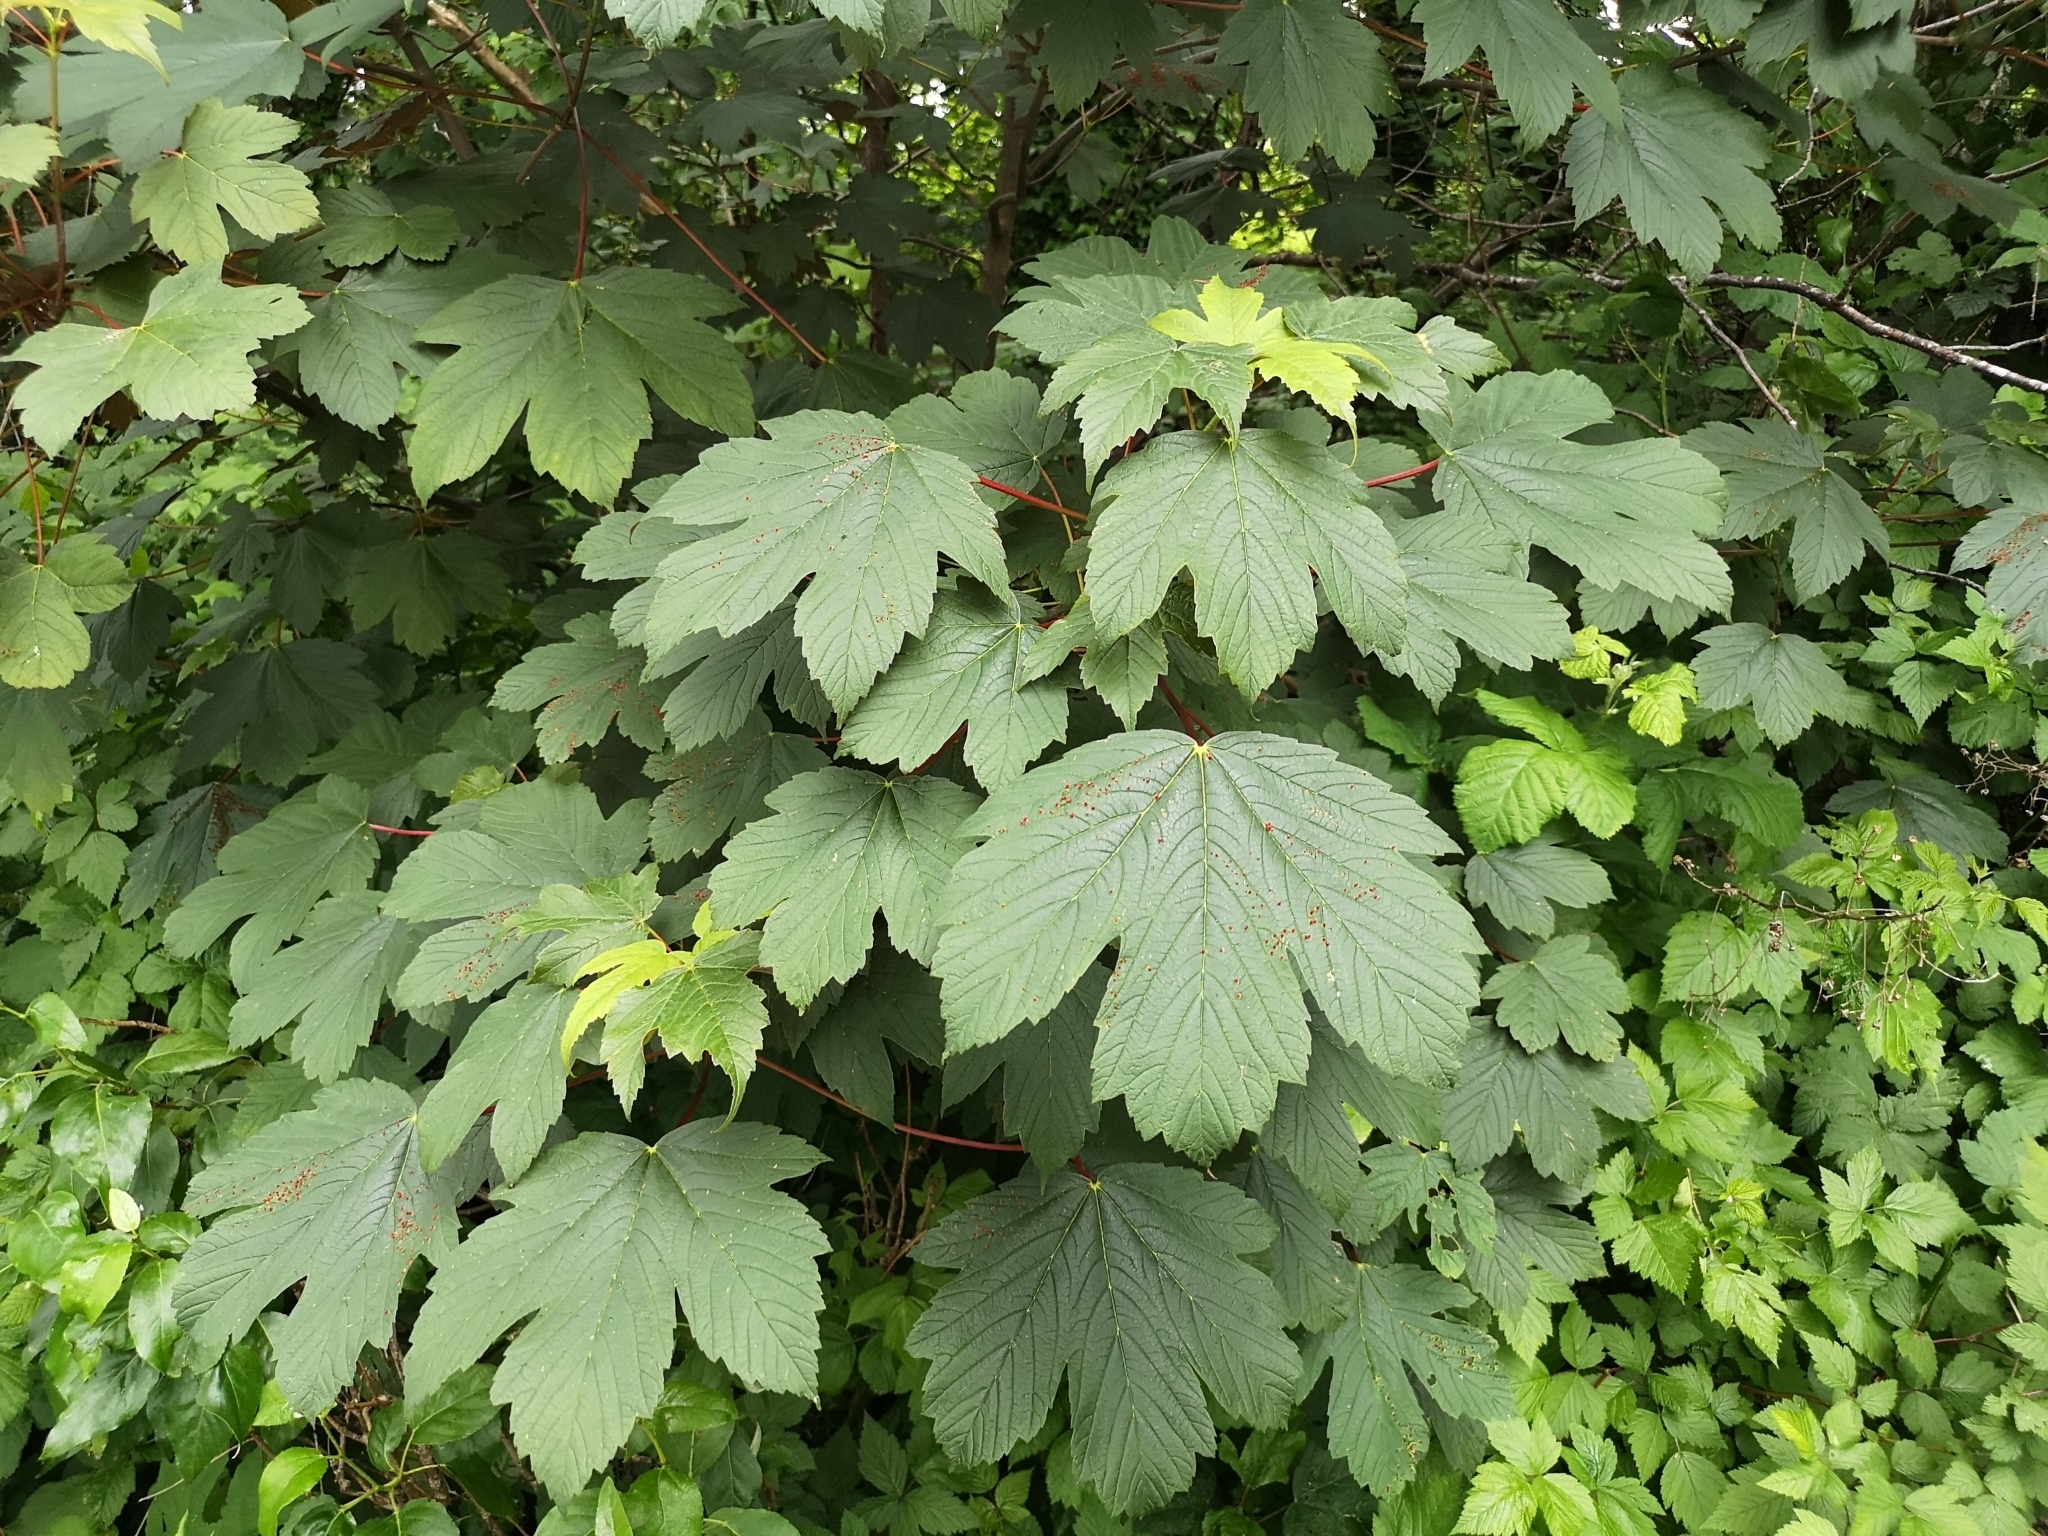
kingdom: Plantae
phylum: Tracheophyta
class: Magnoliopsida
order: Sapindales
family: Sapindaceae
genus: Acer
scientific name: Acer pseudoplatanus
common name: Sycamore
